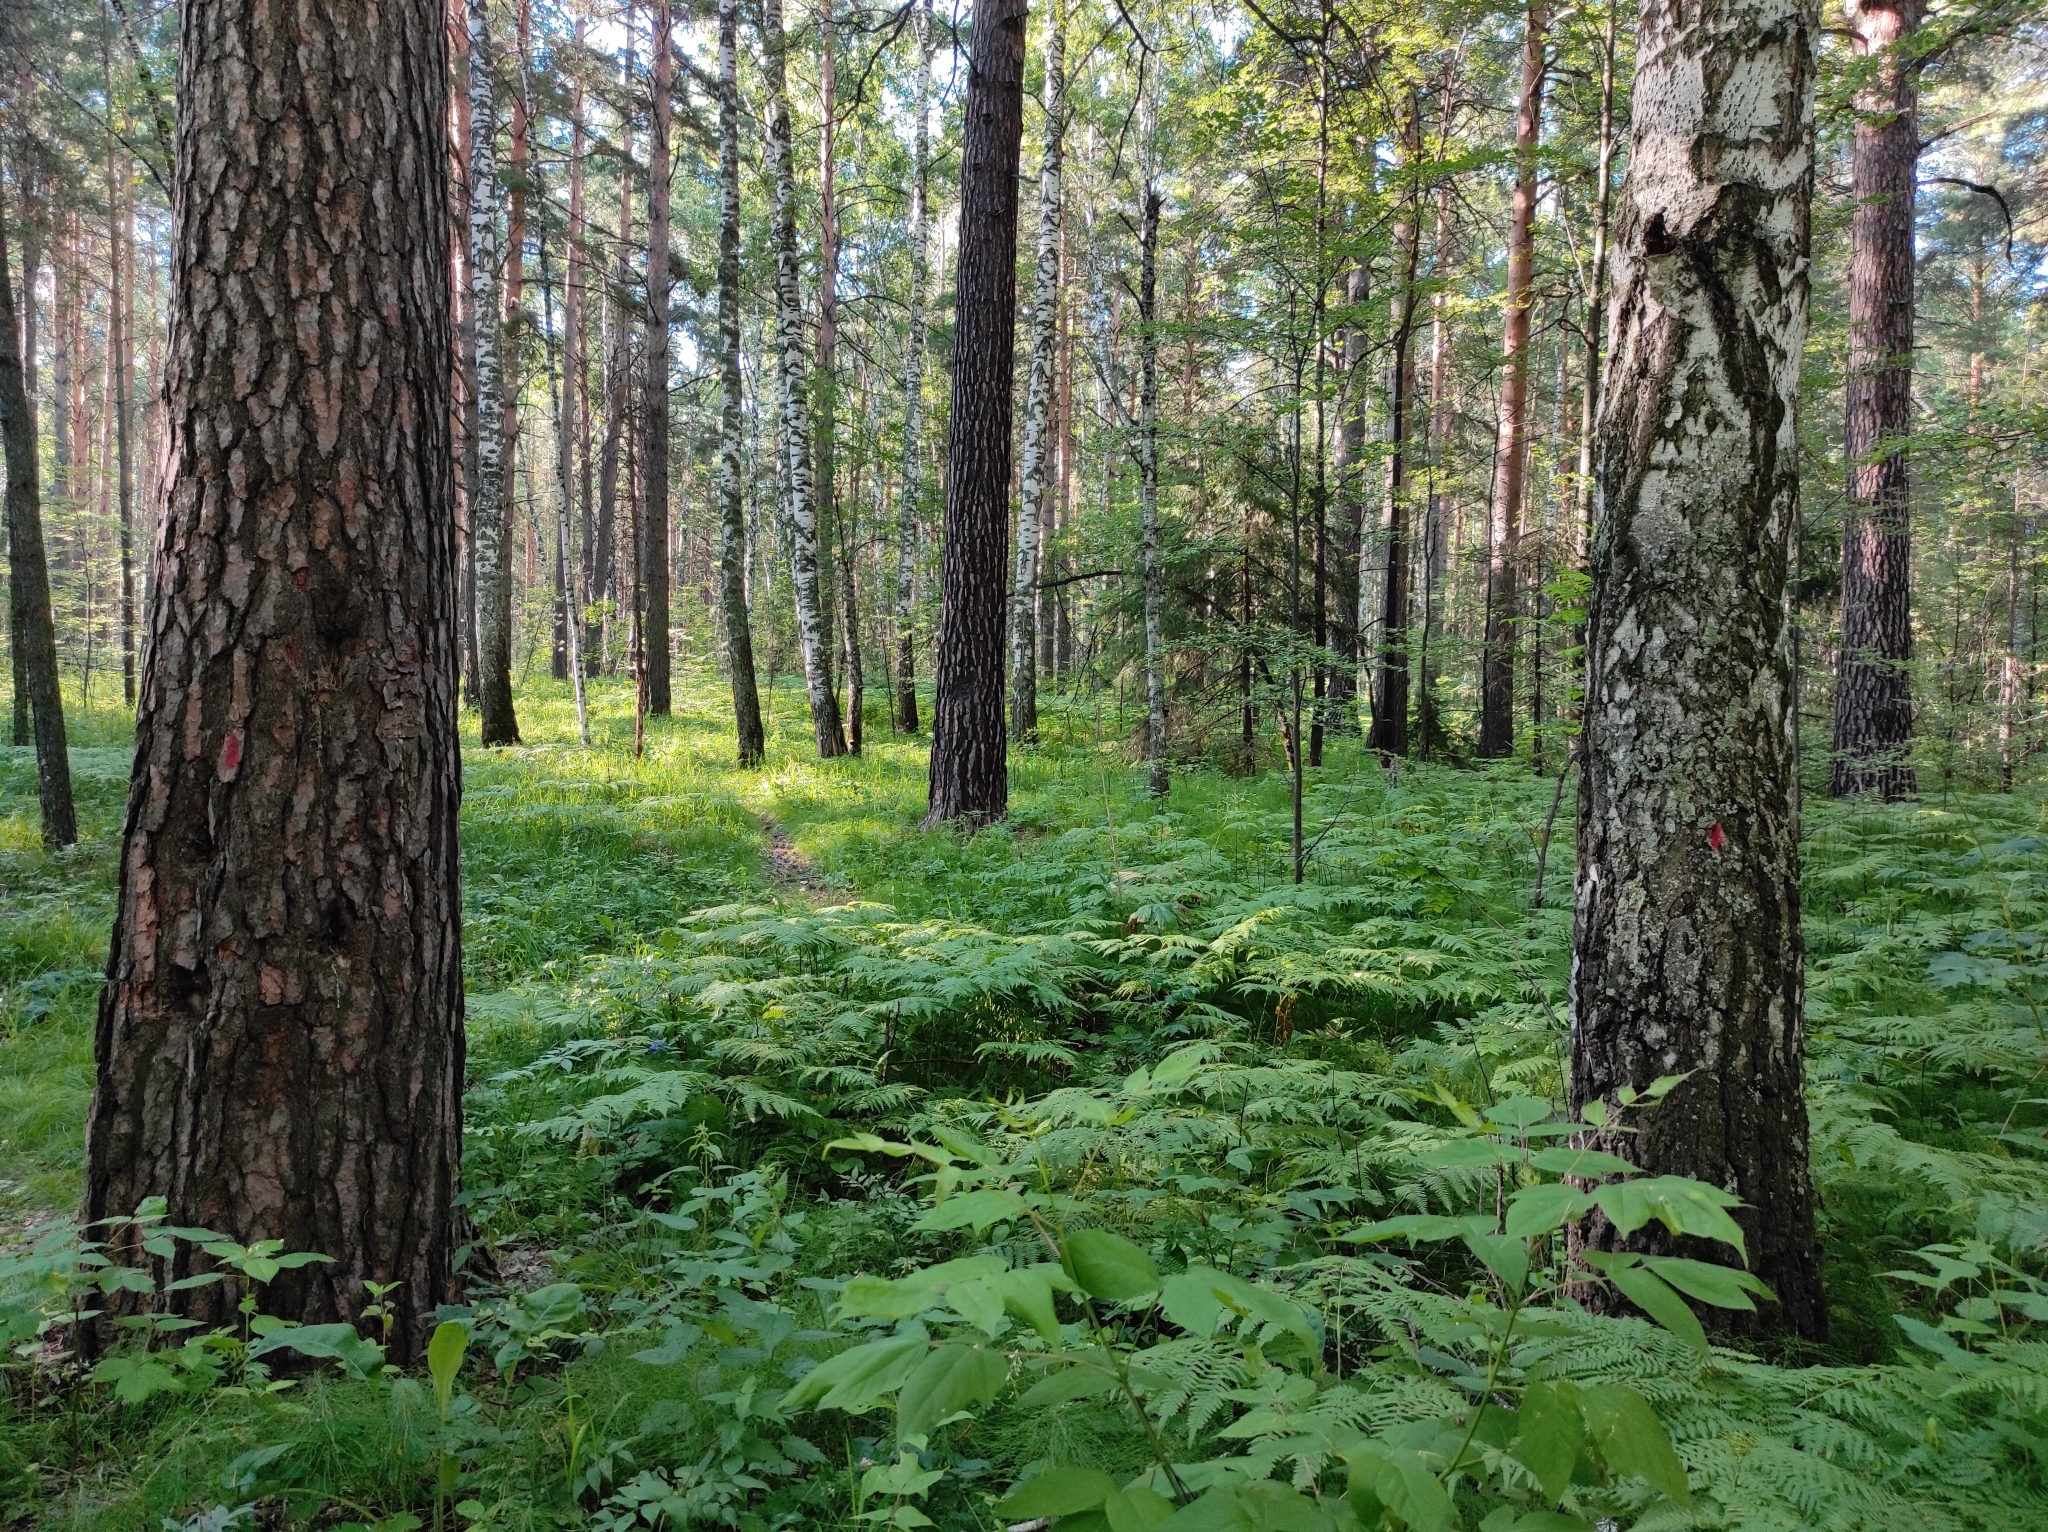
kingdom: Plantae
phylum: Tracheophyta
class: Pinopsida
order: Pinales
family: Pinaceae
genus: Pinus
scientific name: Pinus sylvestris
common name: Scots pine
